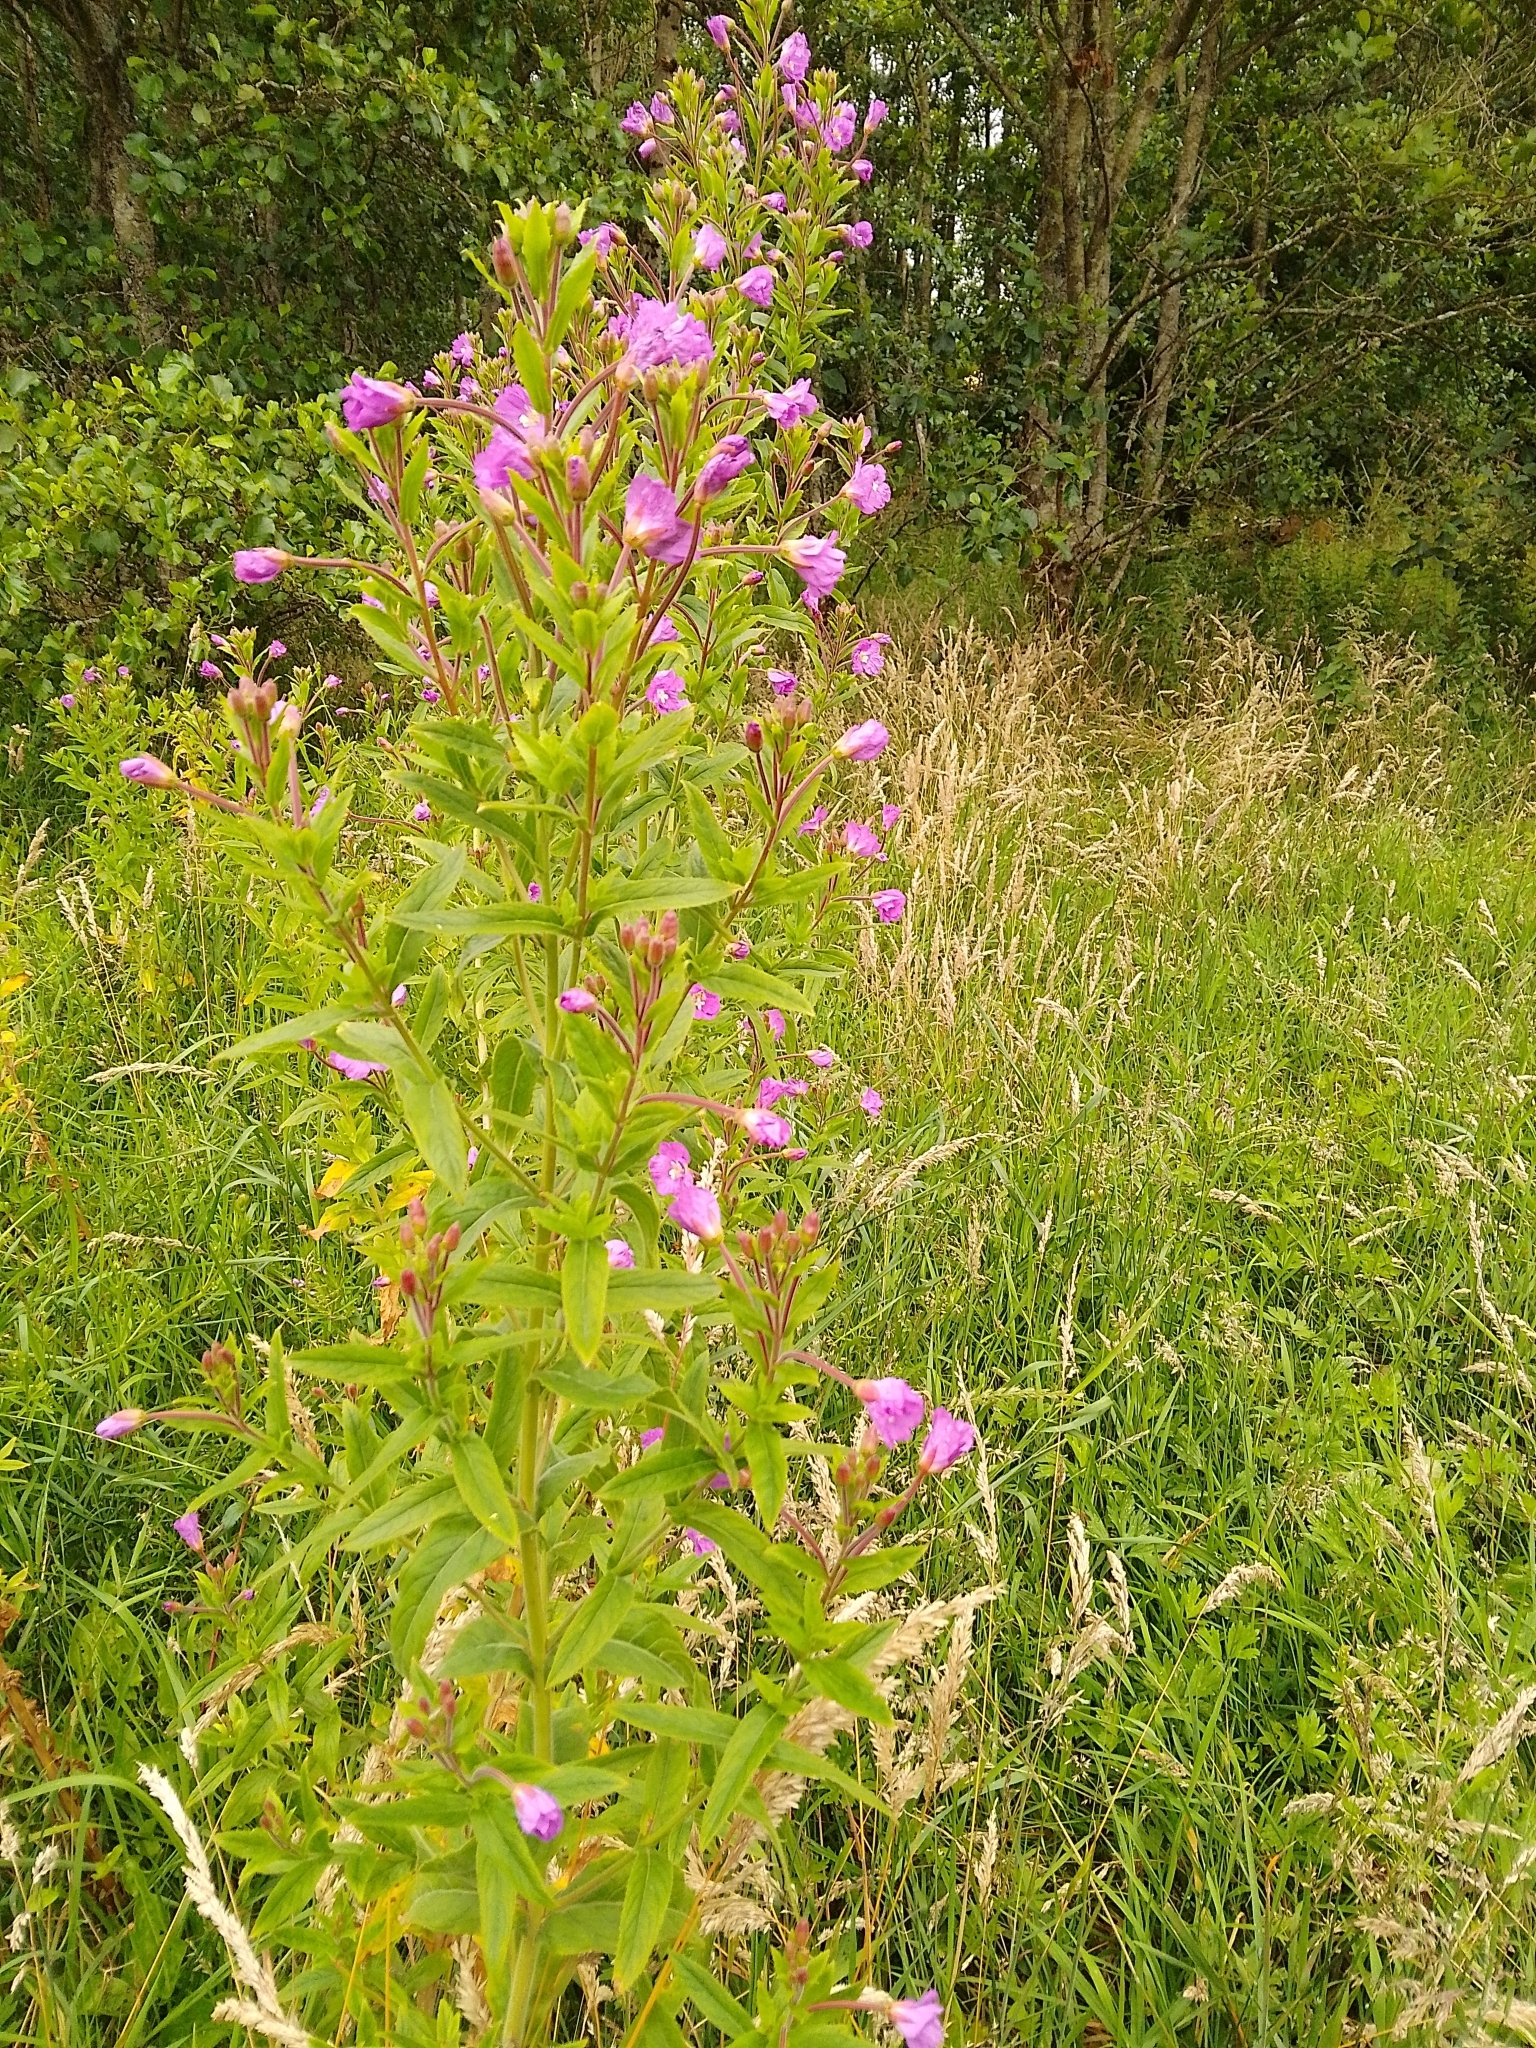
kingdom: Plantae
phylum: Tracheophyta
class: Magnoliopsida
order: Myrtales
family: Onagraceae
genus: Epilobium
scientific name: Epilobium hirsutum
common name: Great willowherb
